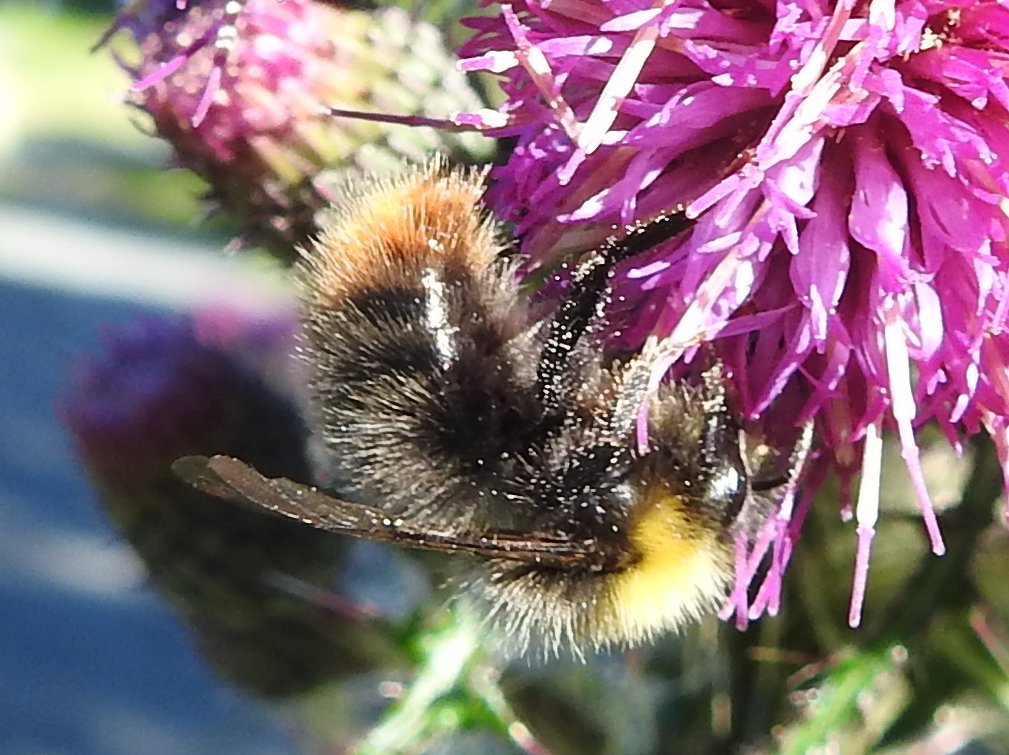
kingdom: Animalia
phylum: Arthropoda
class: Insecta
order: Hymenoptera
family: Apidae
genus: Bombus
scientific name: Bombus pratorum
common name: Early humble-bee
